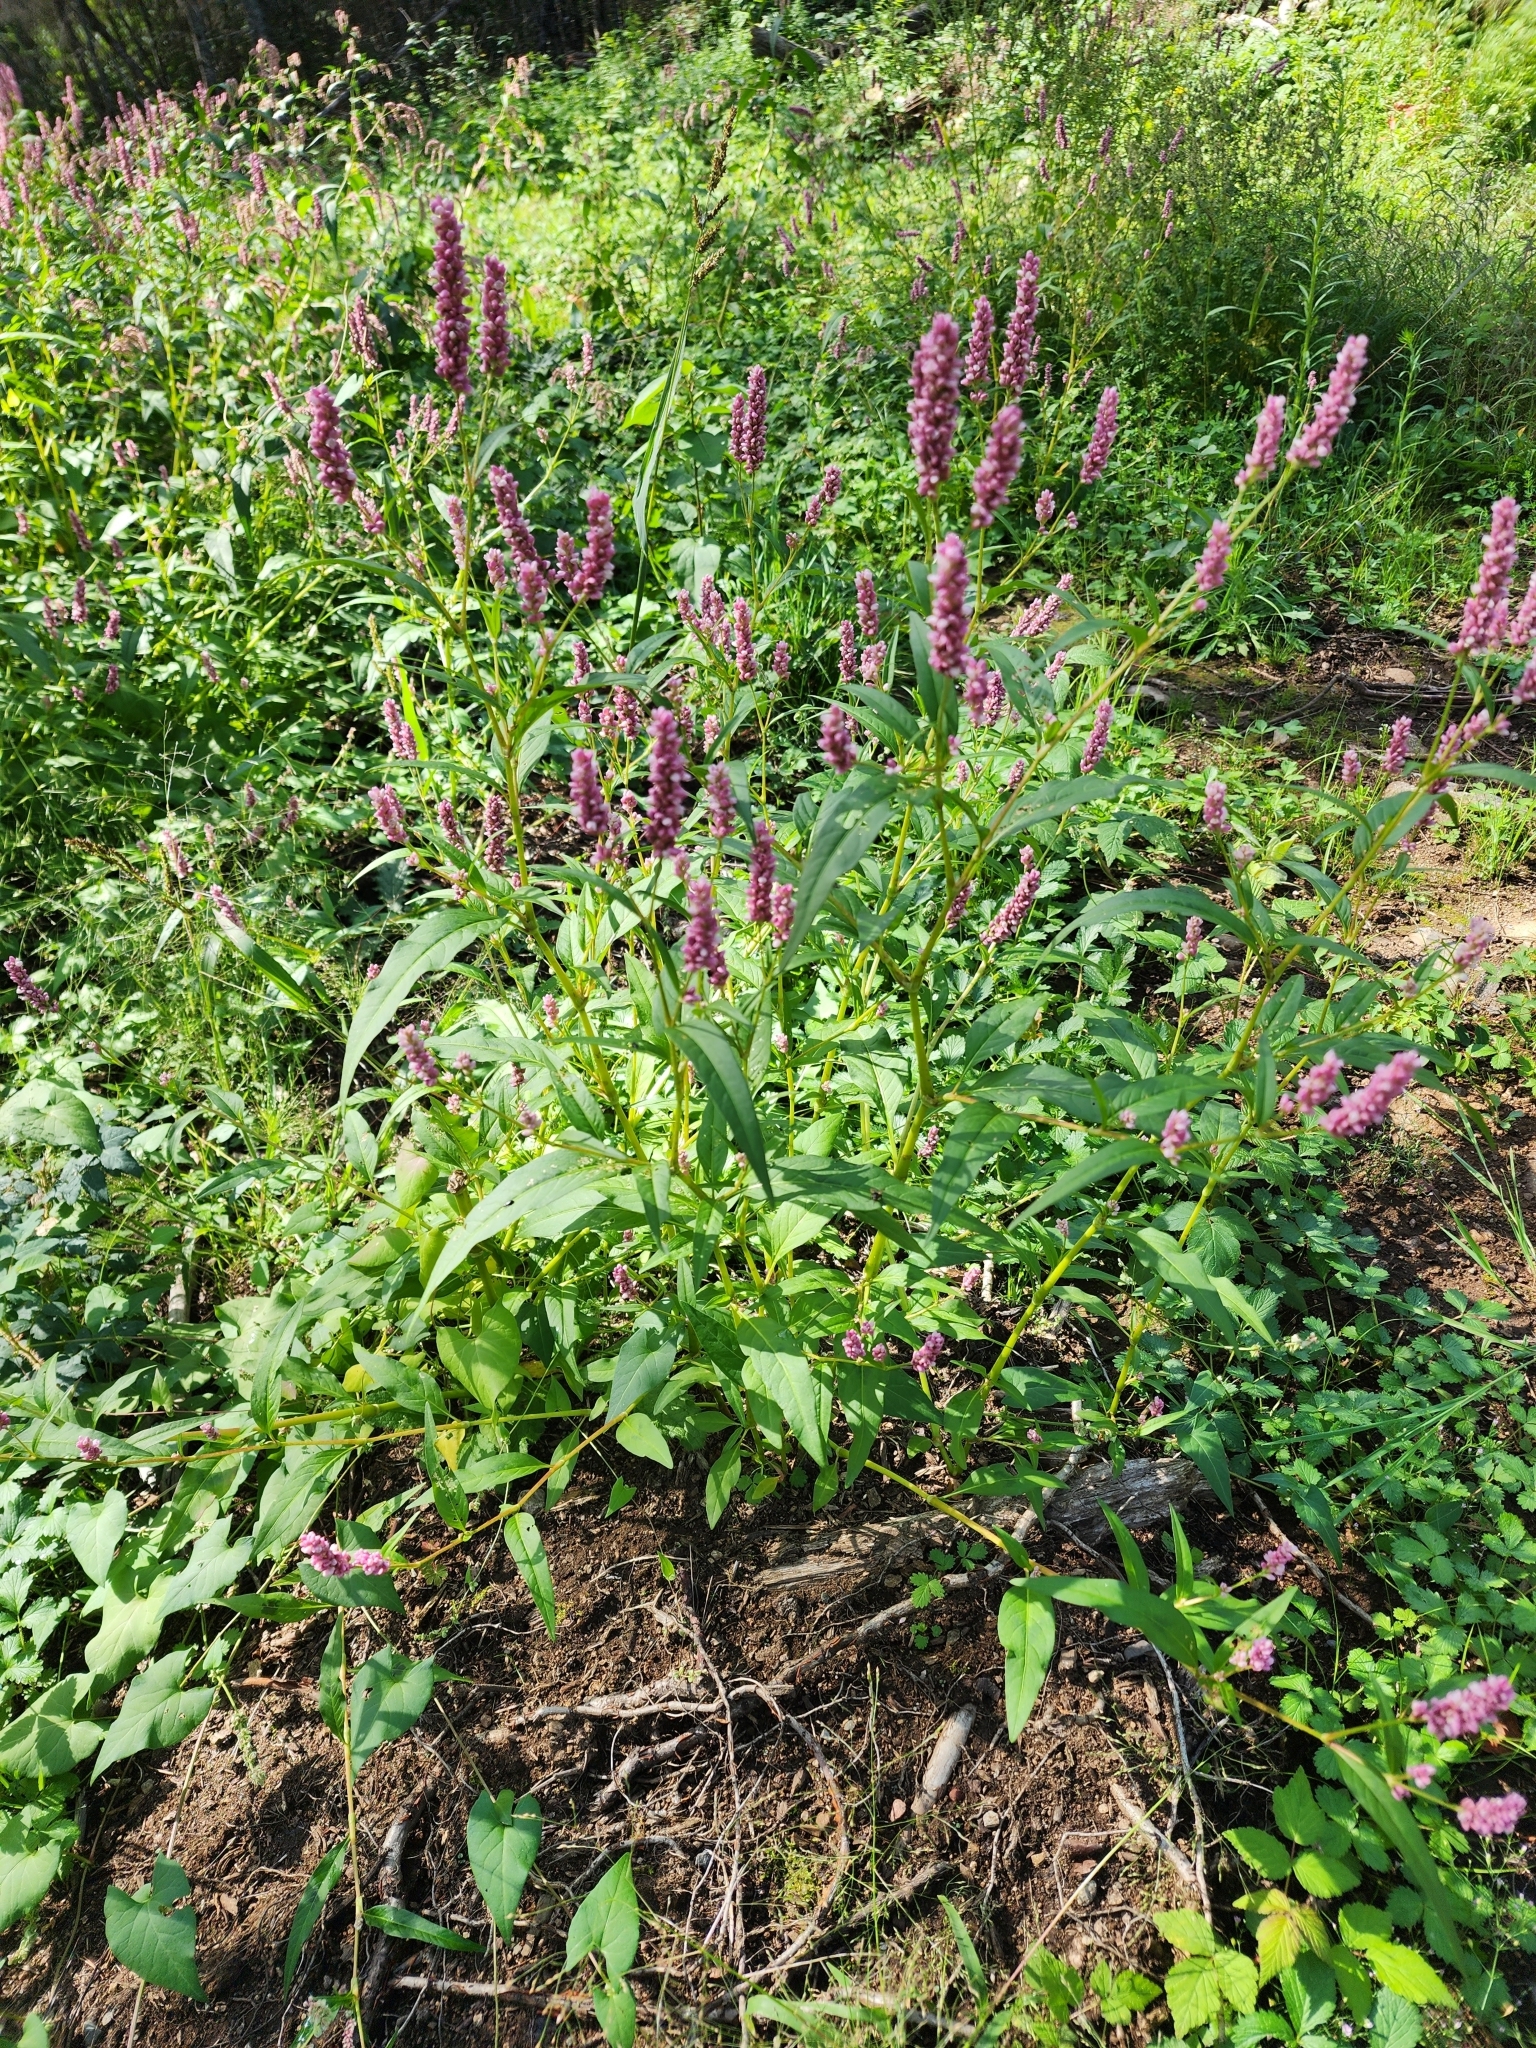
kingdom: Plantae
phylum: Tracheophyta
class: Magnoliopsida
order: Caryophyllales
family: Polygonaceae
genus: Persicaria
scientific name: Persicaria pensylvanica
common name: Pinkweed
